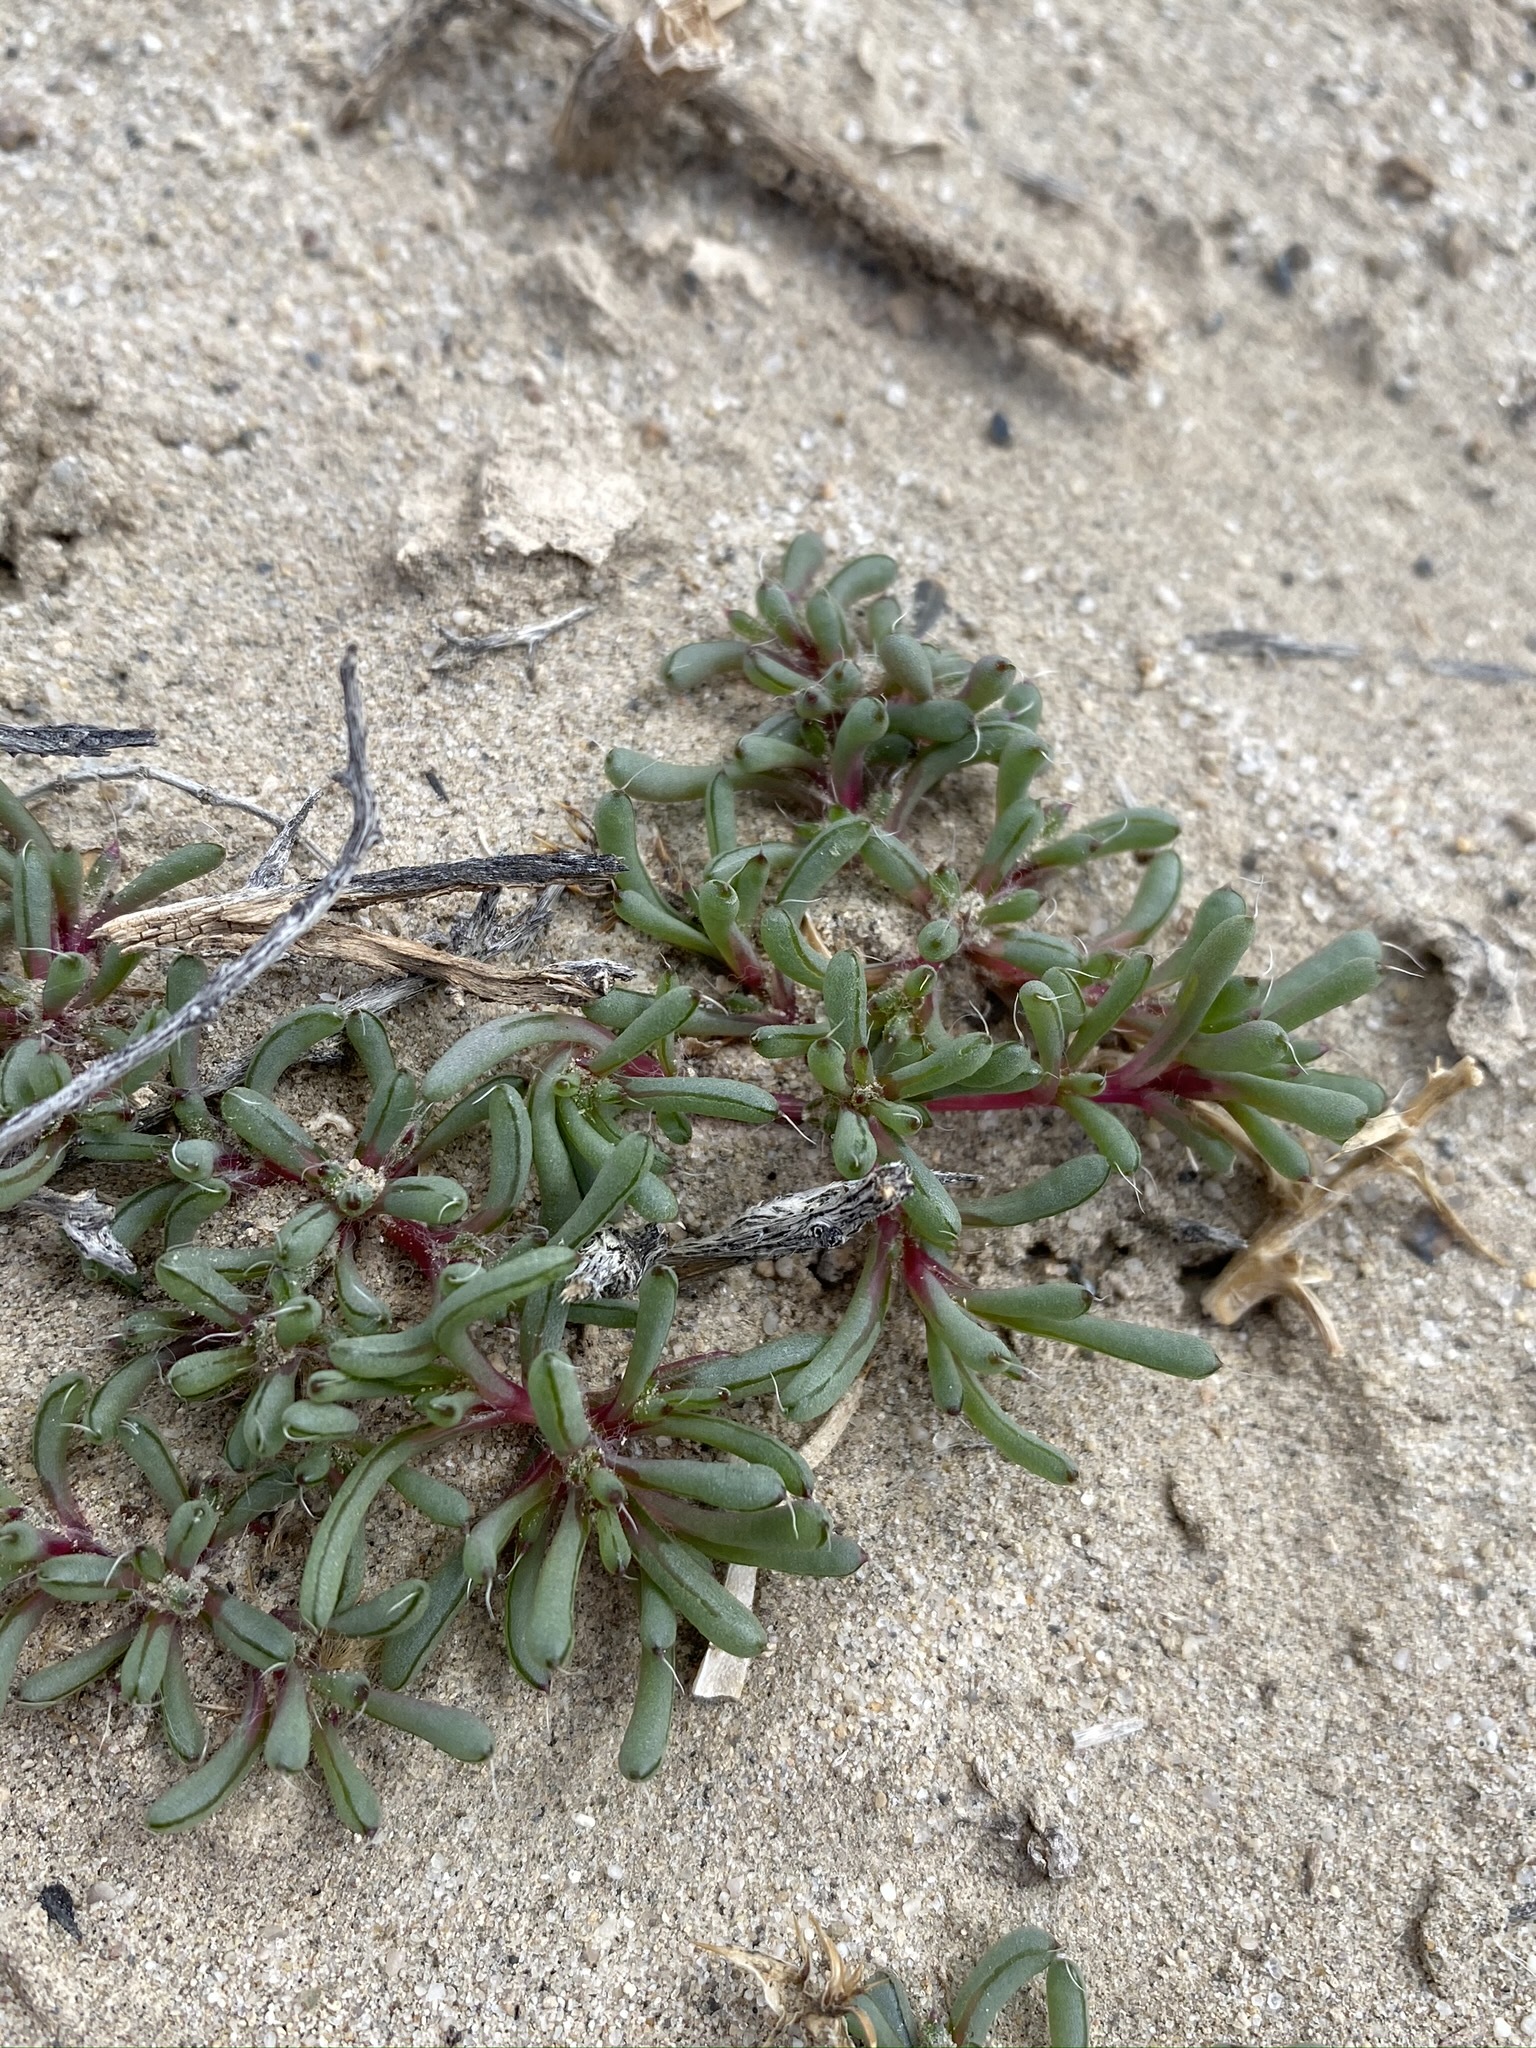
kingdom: Plantae
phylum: Tracheophyta
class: Magnoliopsida
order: Caryophyllales
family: Amaranthaceae
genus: Halogeton
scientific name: Halogeton glomeratus
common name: Saltlover
